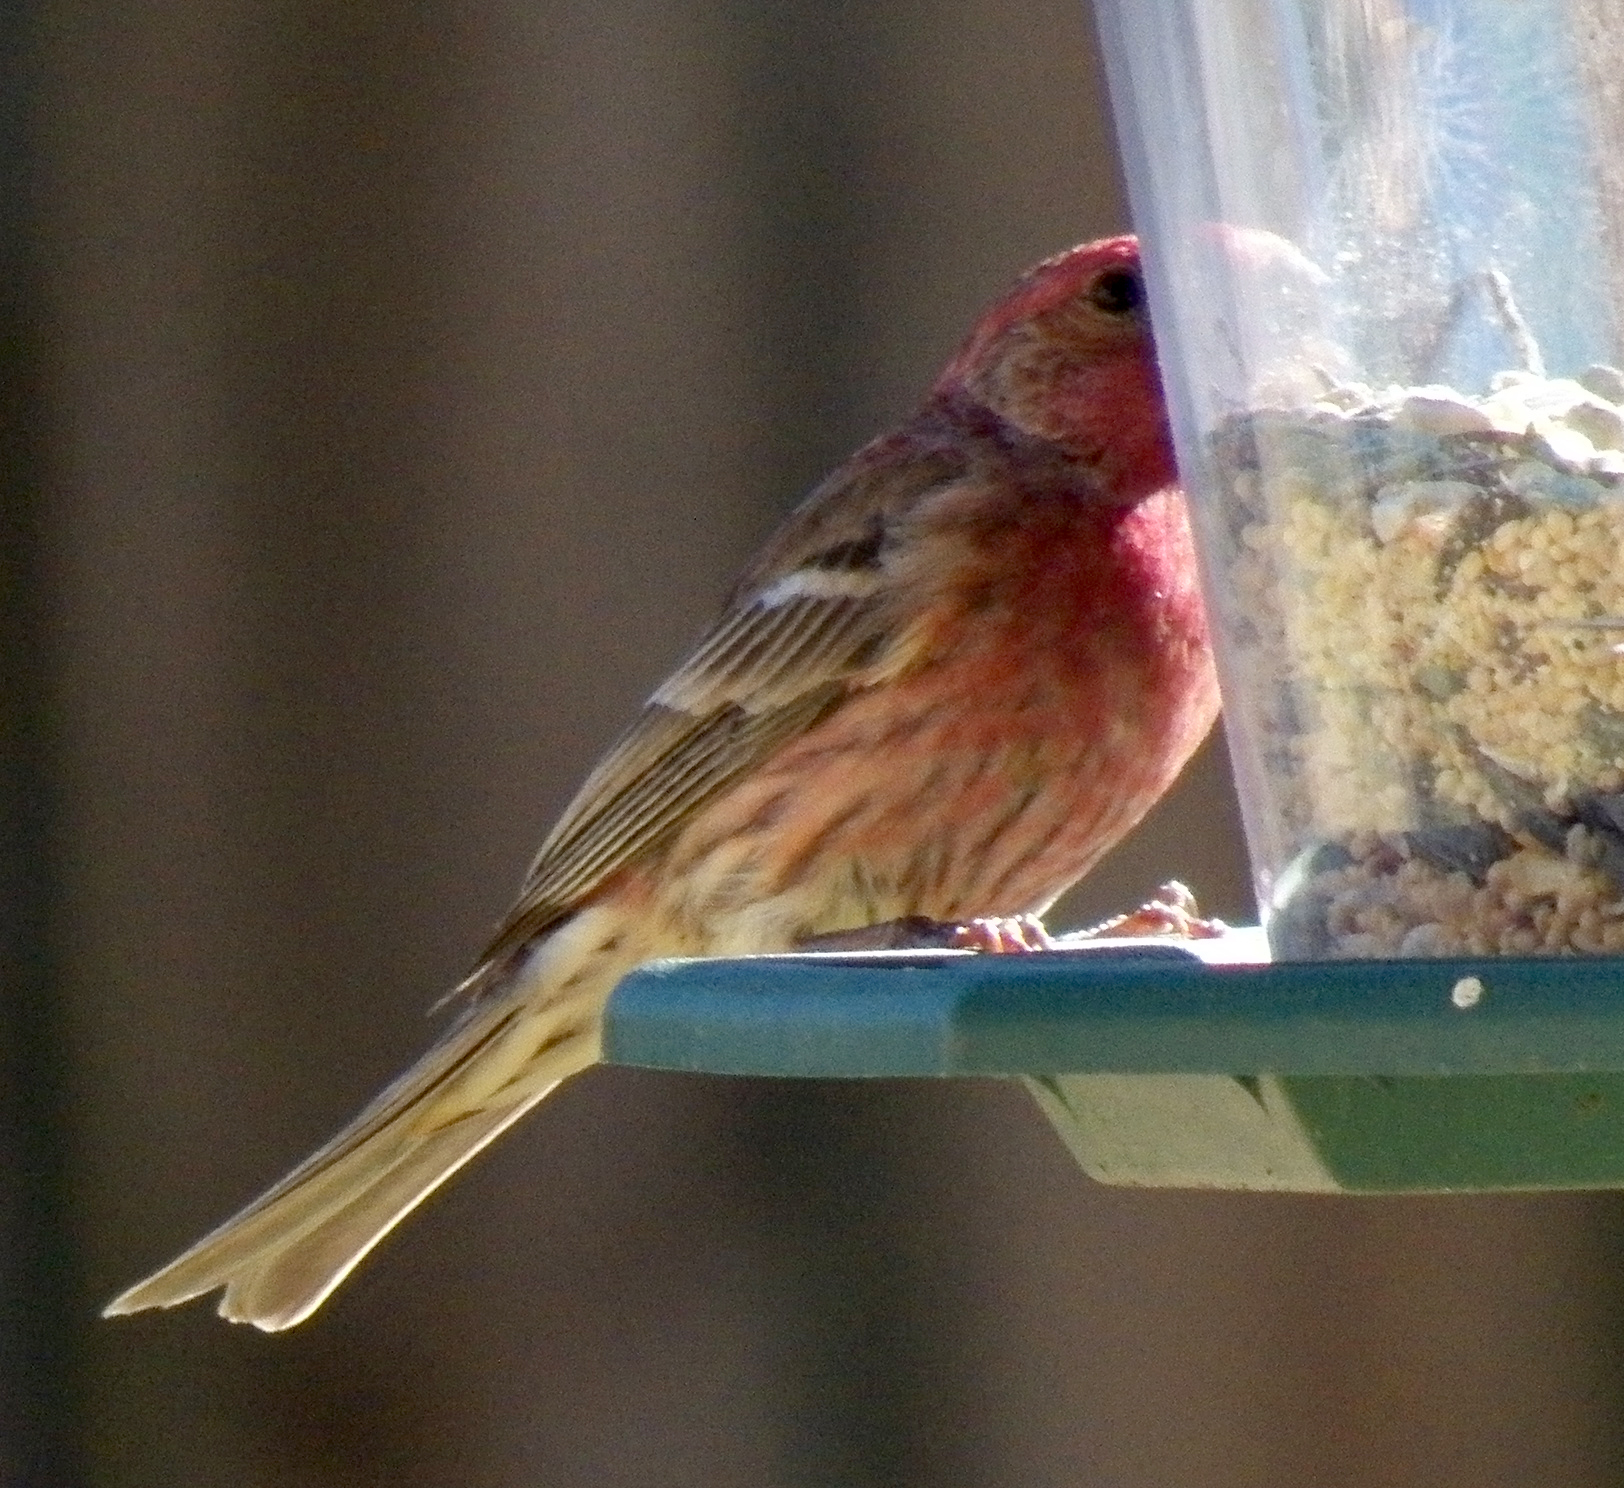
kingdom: Animalia
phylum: Chordata
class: Aves
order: Passeriformes
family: Fringillidae
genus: Haemorhous
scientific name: Haemorhous mexicanus
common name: House finch
